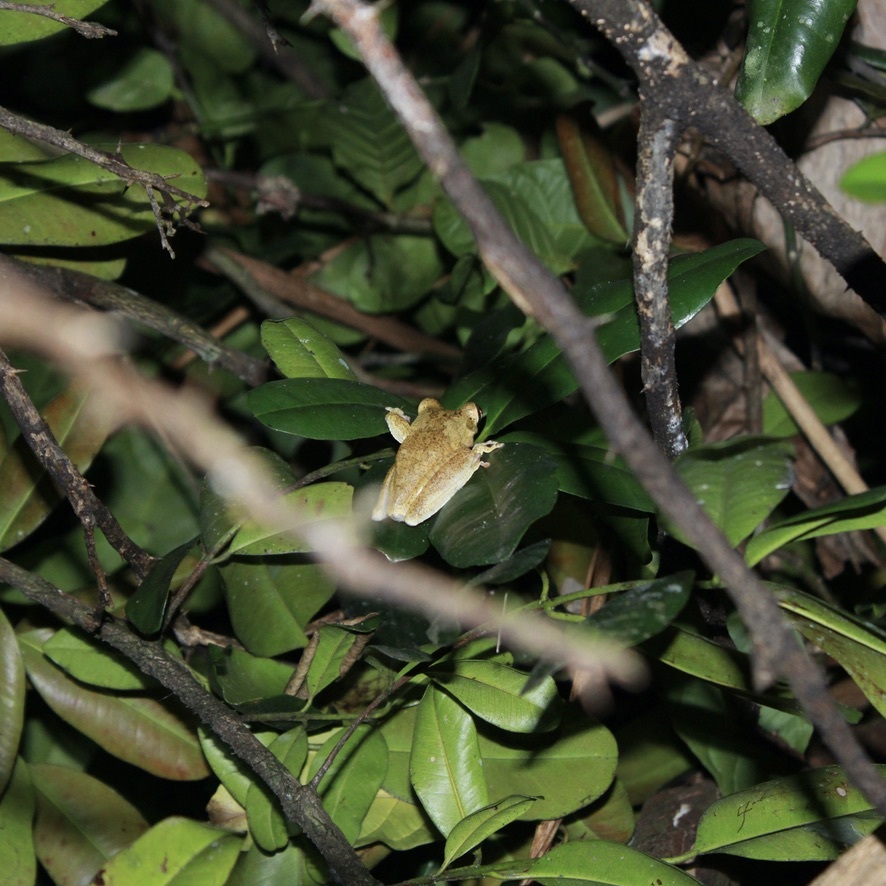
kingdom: Animalia
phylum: Chordata
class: Amphibia
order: Anura
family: Hylidae
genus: Boana
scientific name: Boana platanera
